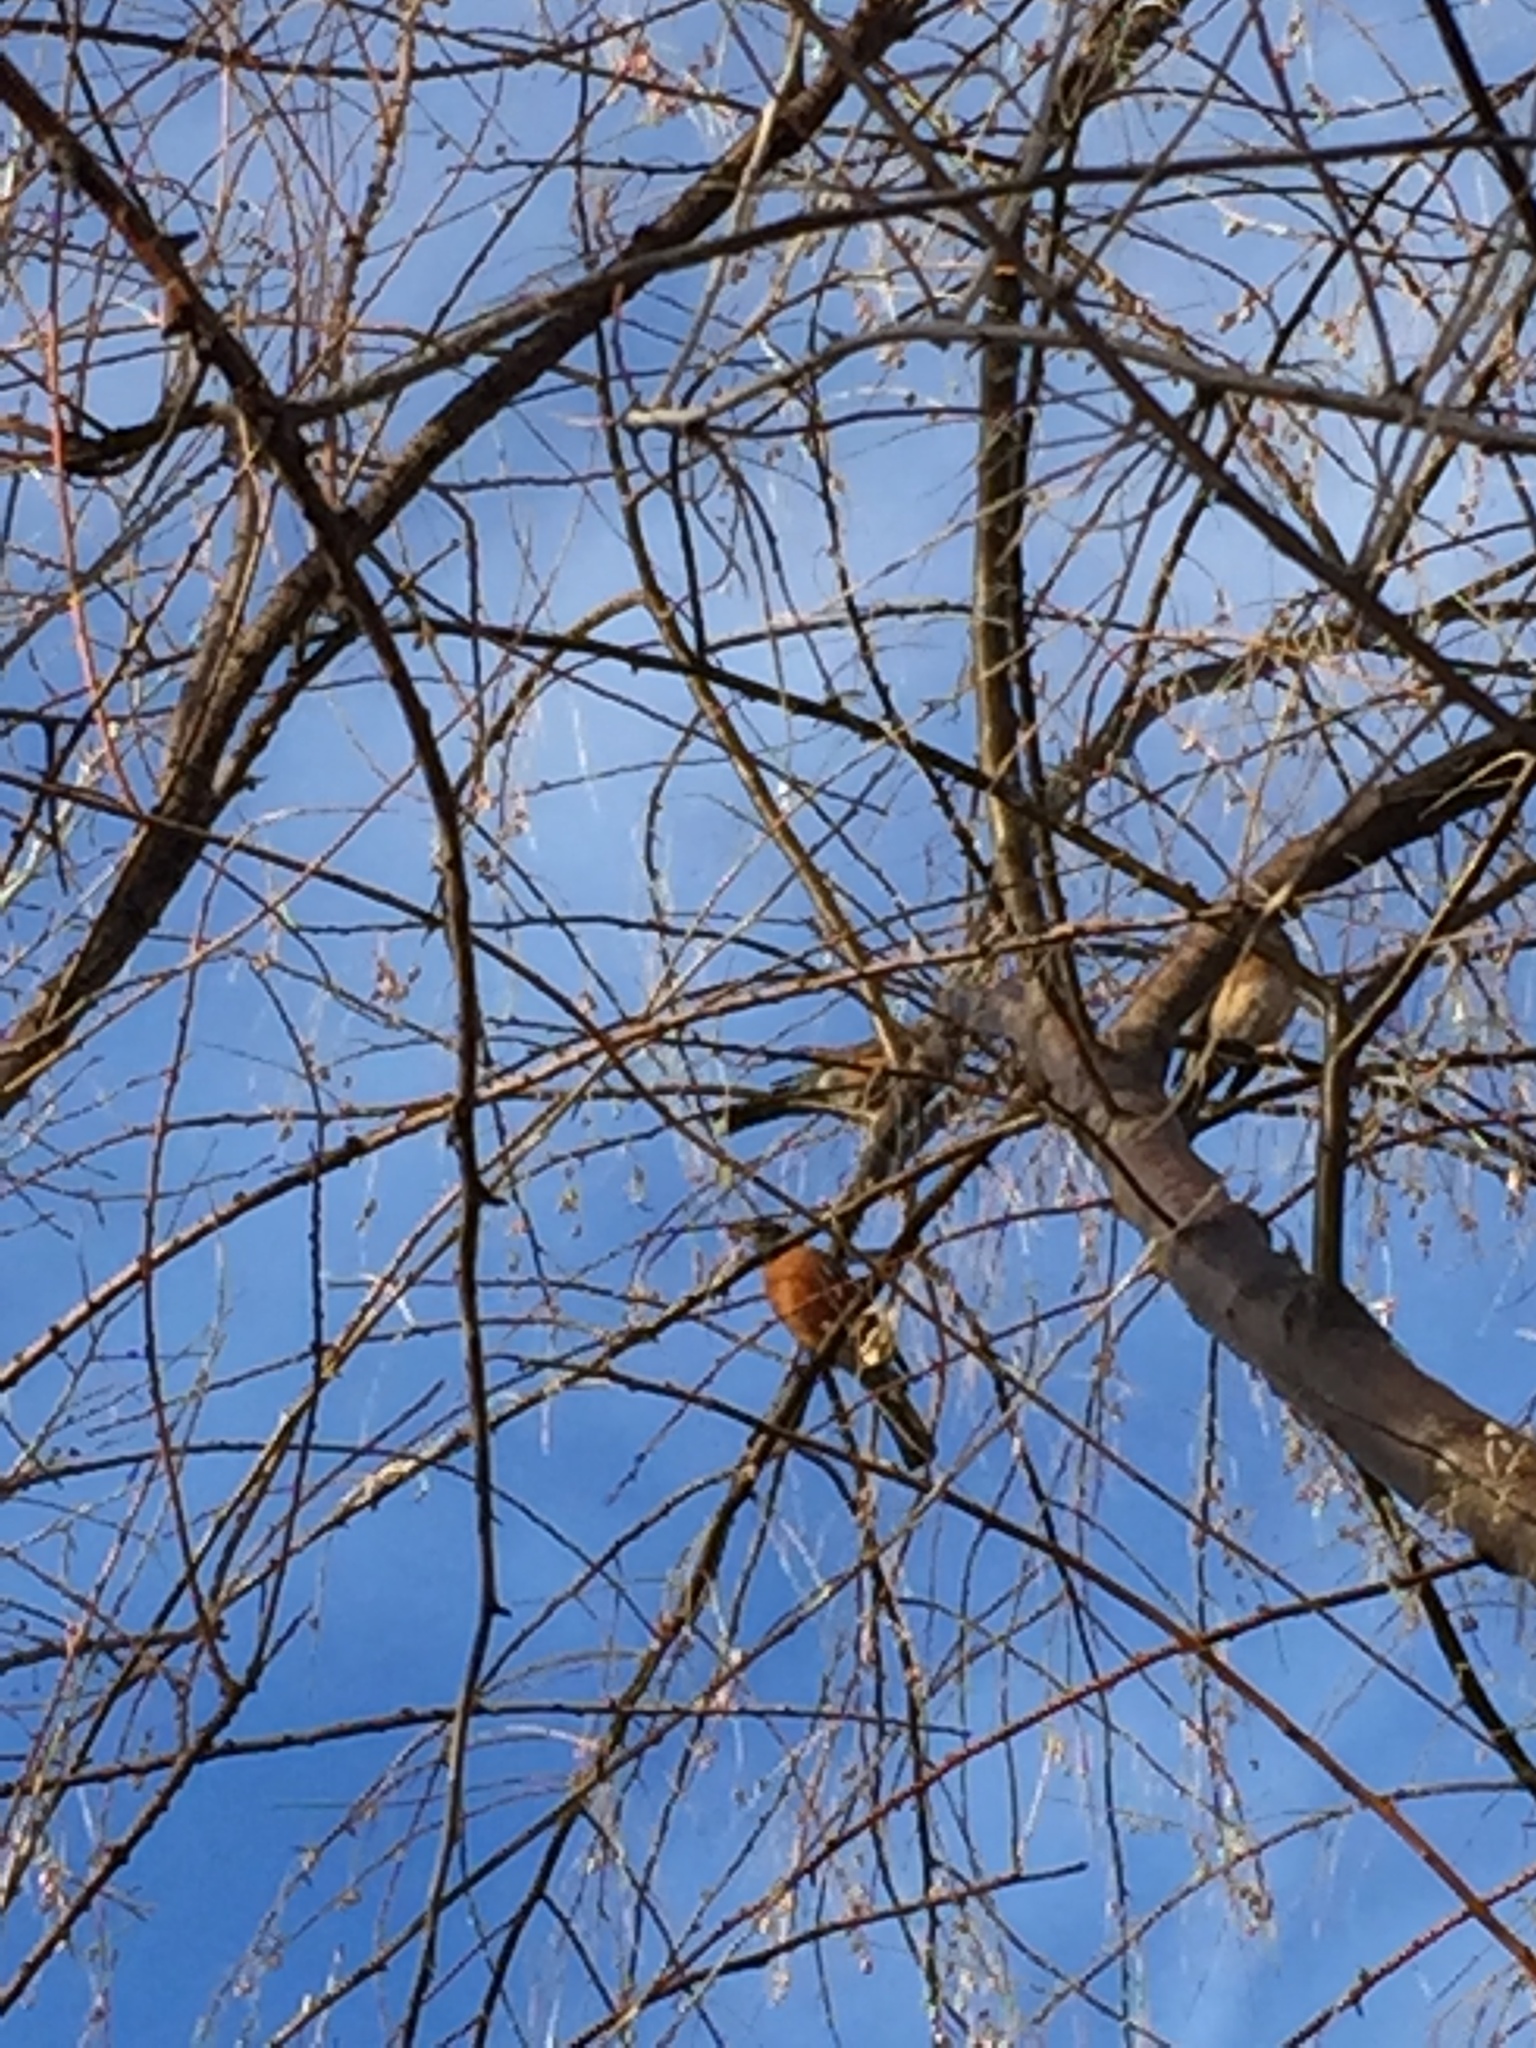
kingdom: Animalia
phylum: Chordata
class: Aves
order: Passeriformes
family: Turdidae
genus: Turdus
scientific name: Turdus migratorius
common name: American robin
